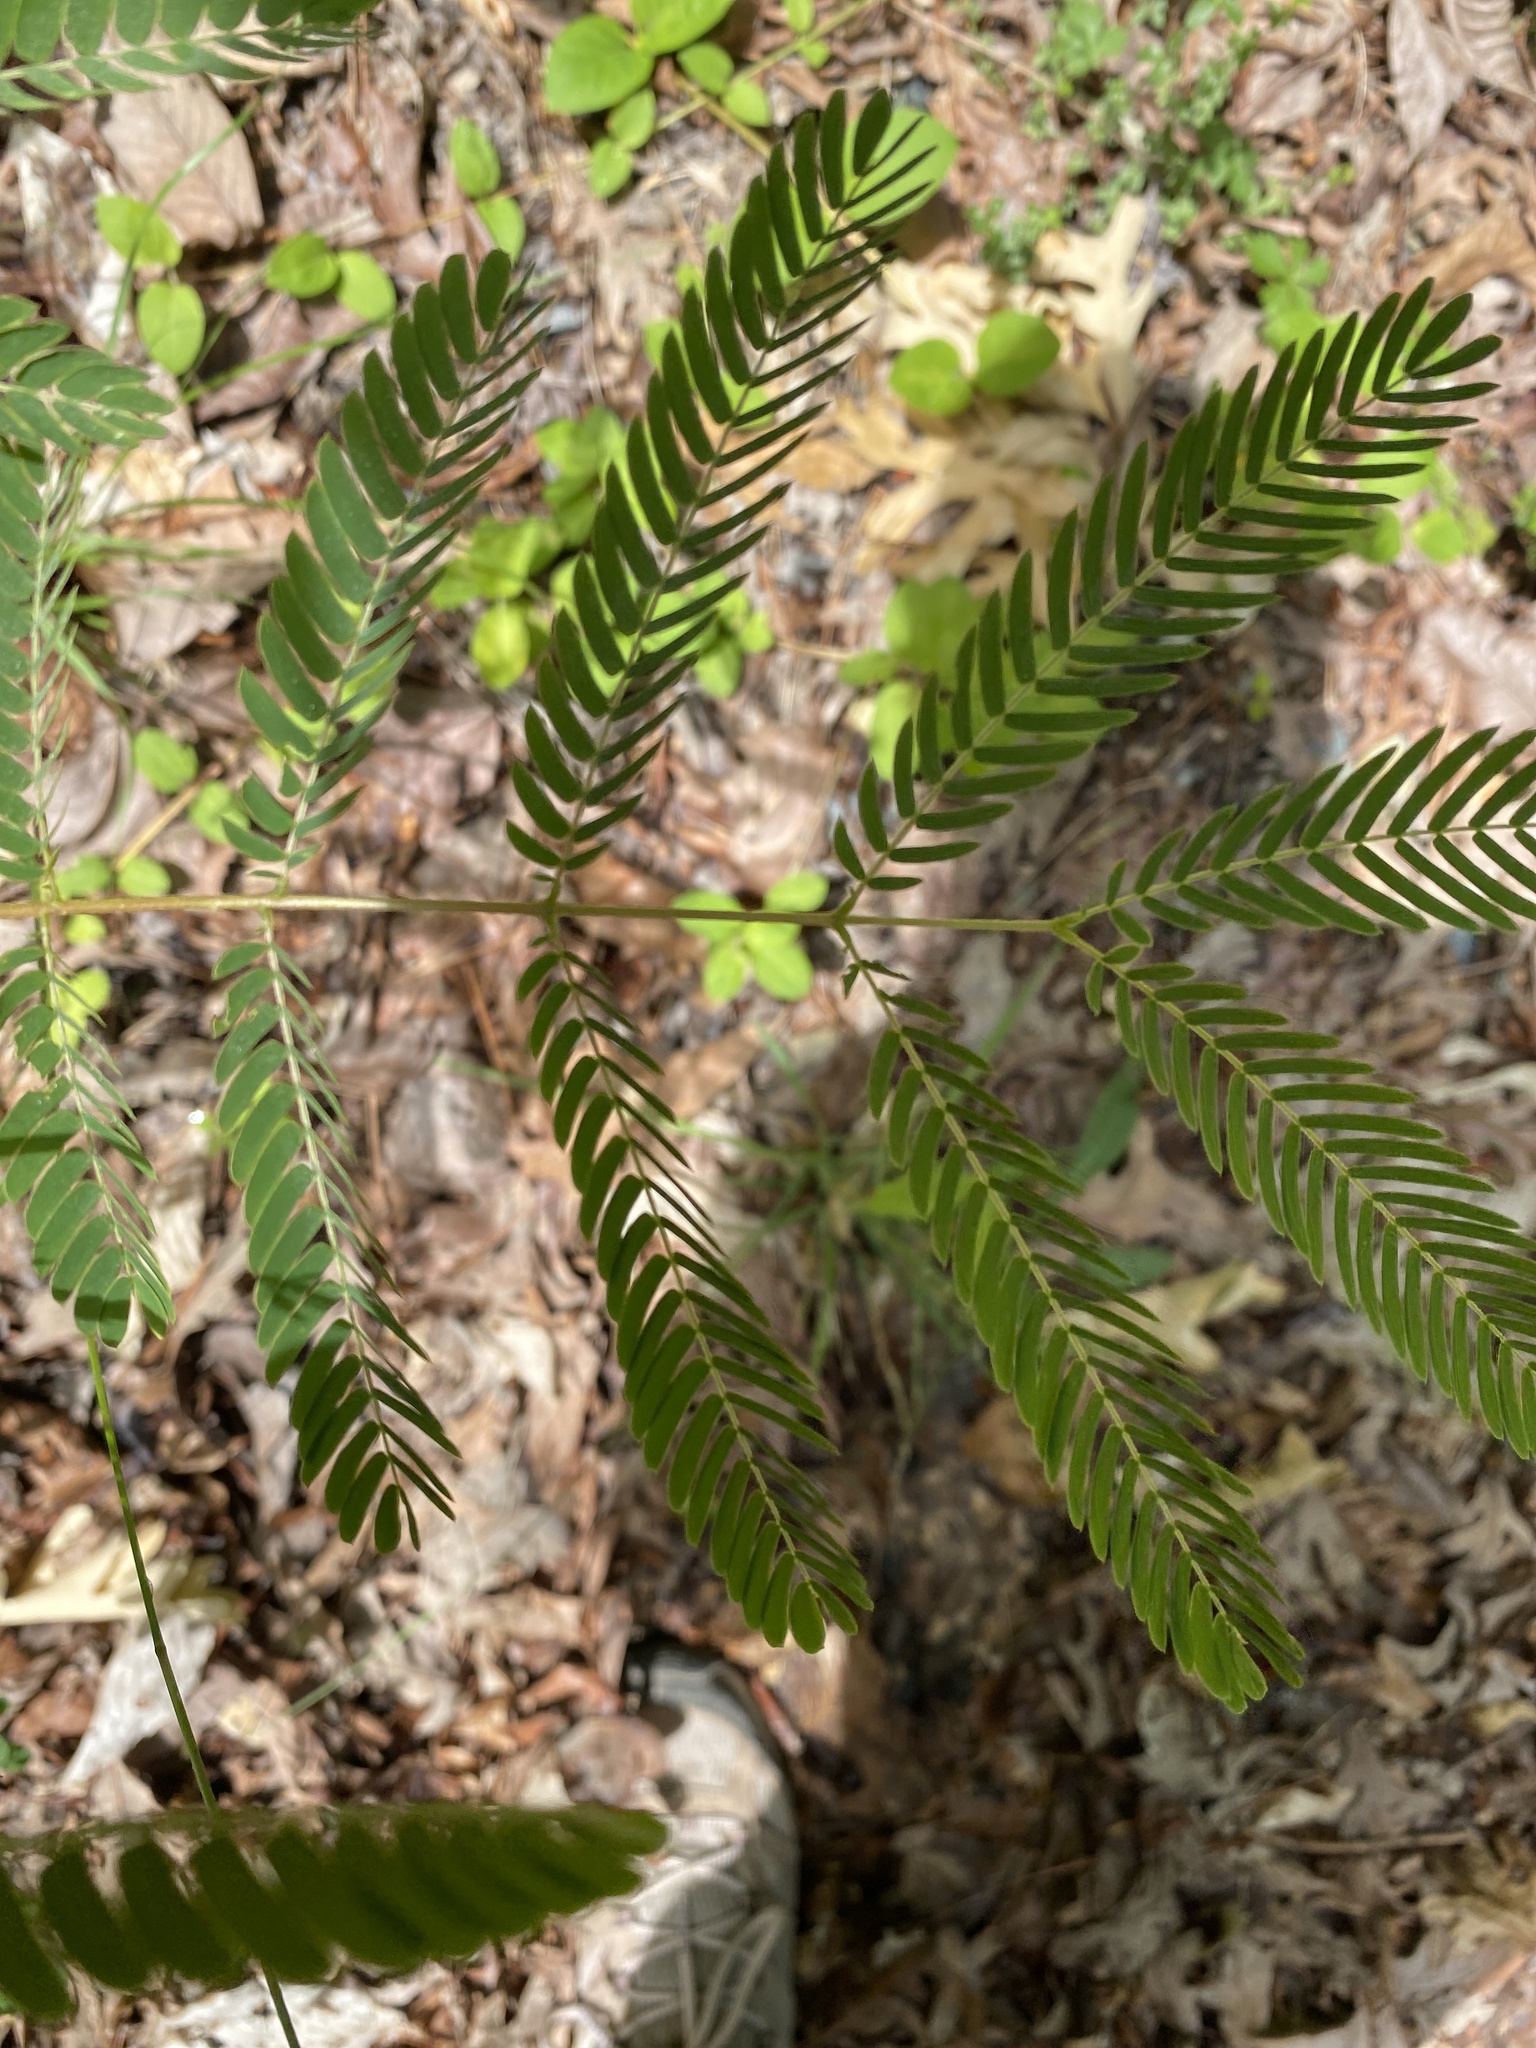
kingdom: Plantae
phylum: Tracheophyta
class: Magnoliopsida
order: Fabales
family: Fabaceae
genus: Albizia
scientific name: Albizia julibrissin
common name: Silktree
